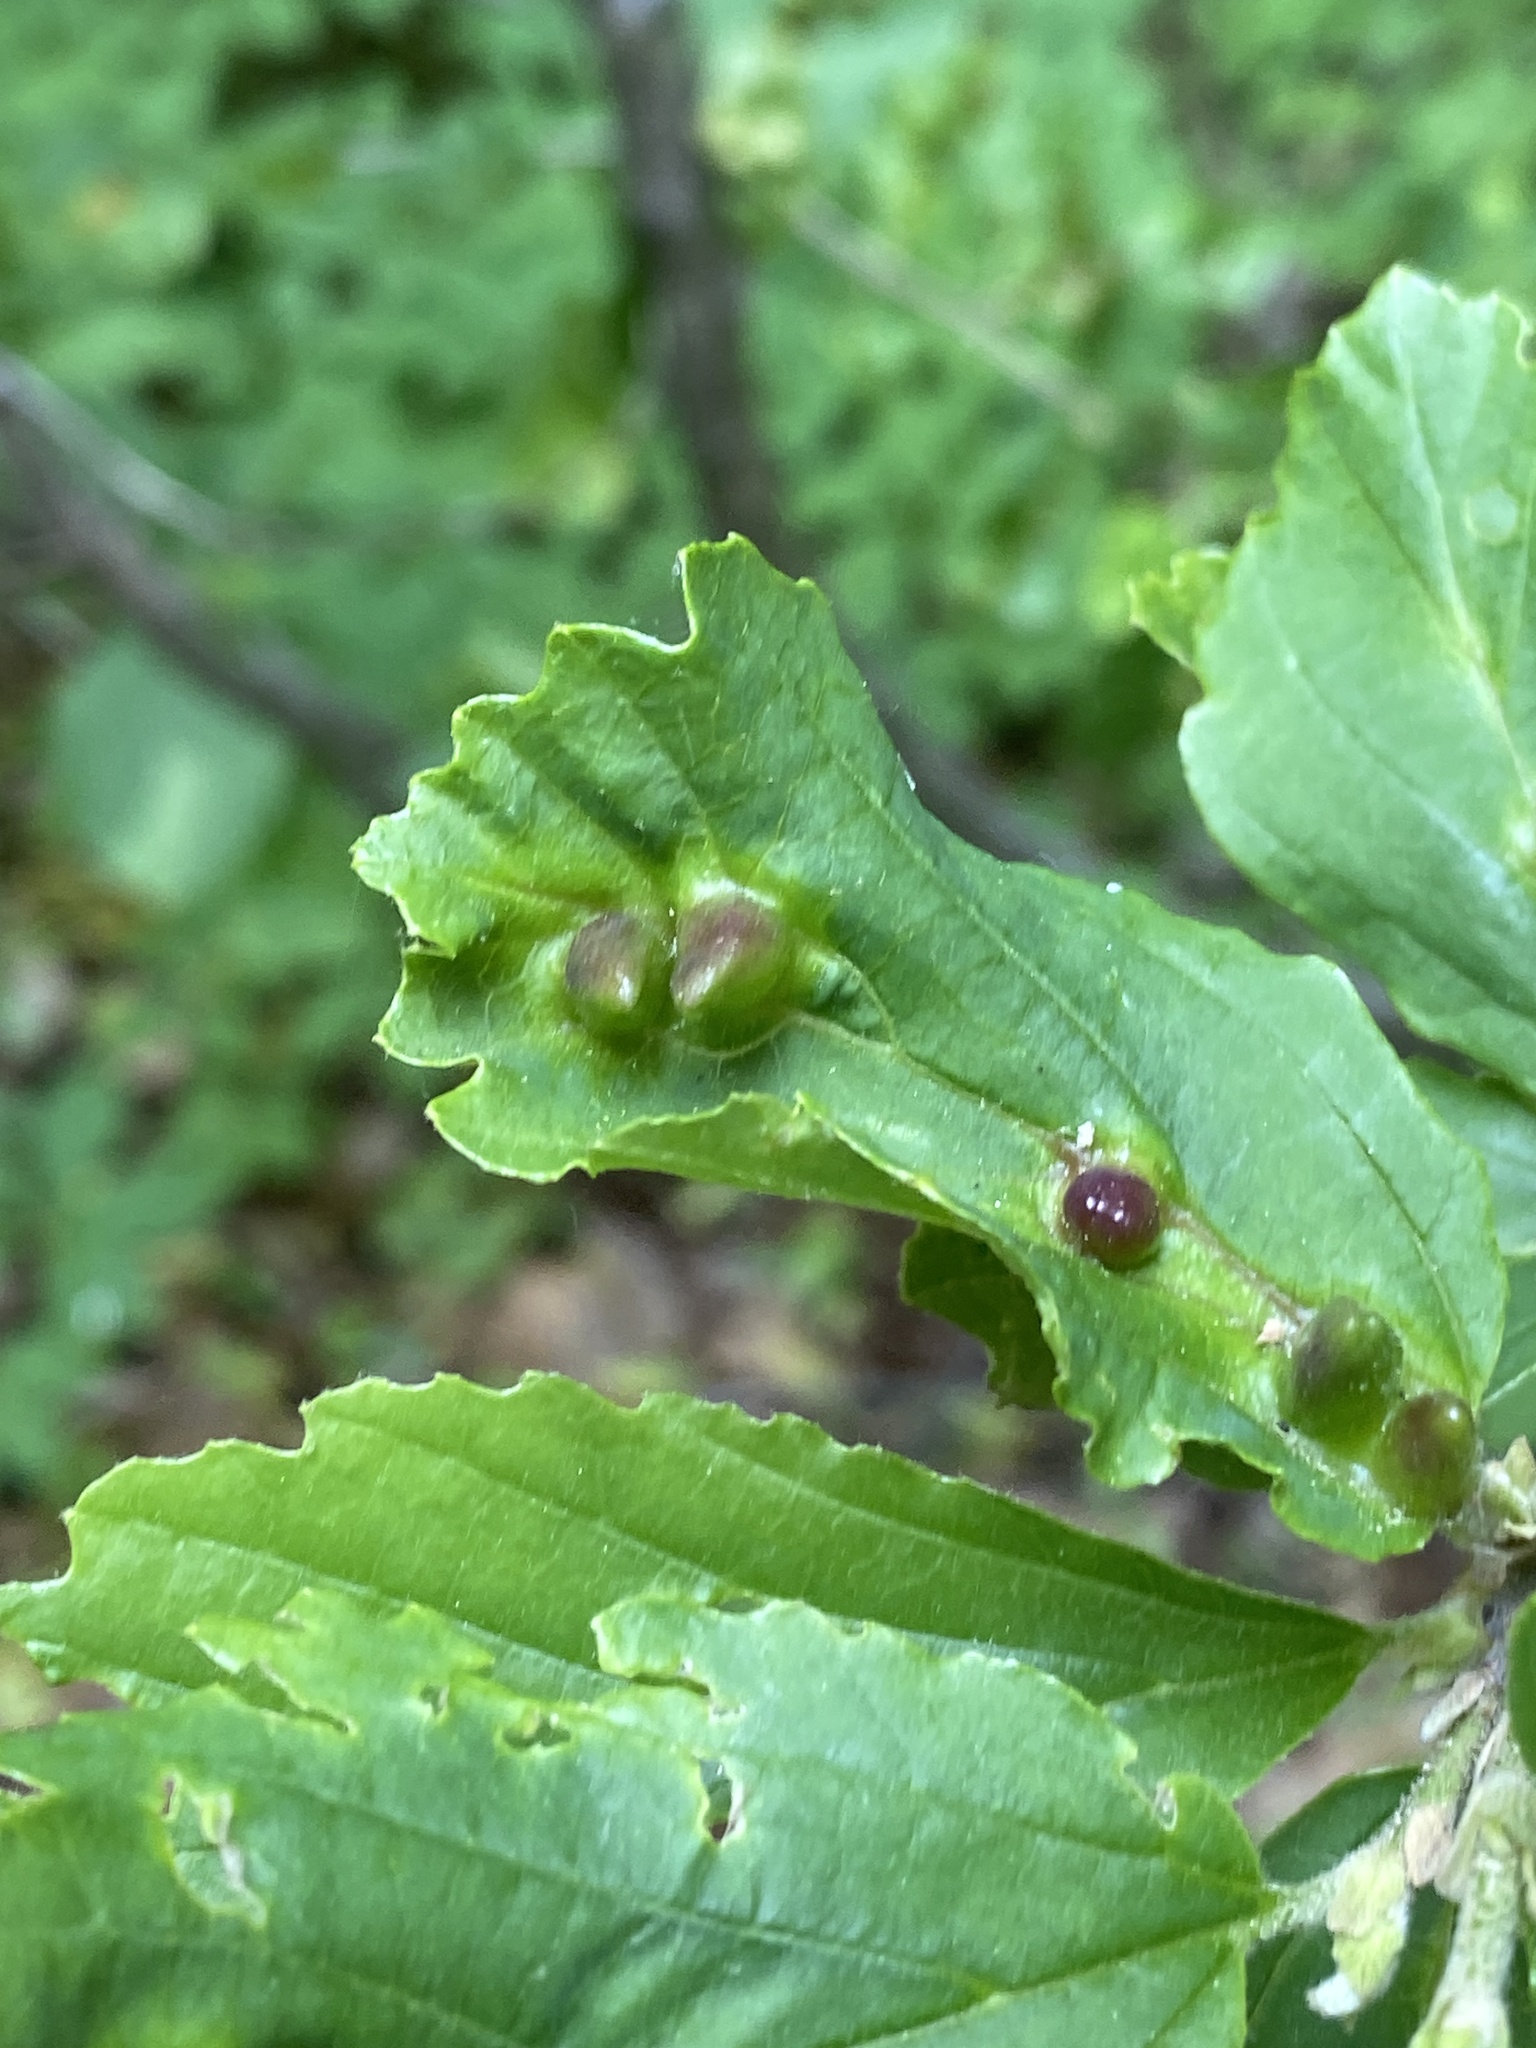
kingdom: Animalia
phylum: Arthropoda
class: Insecta
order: Hemiptera
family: Aphididae
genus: Hormaphis
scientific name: Hormaphis hamamelidis
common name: Witch-hazel cone gall aphid
